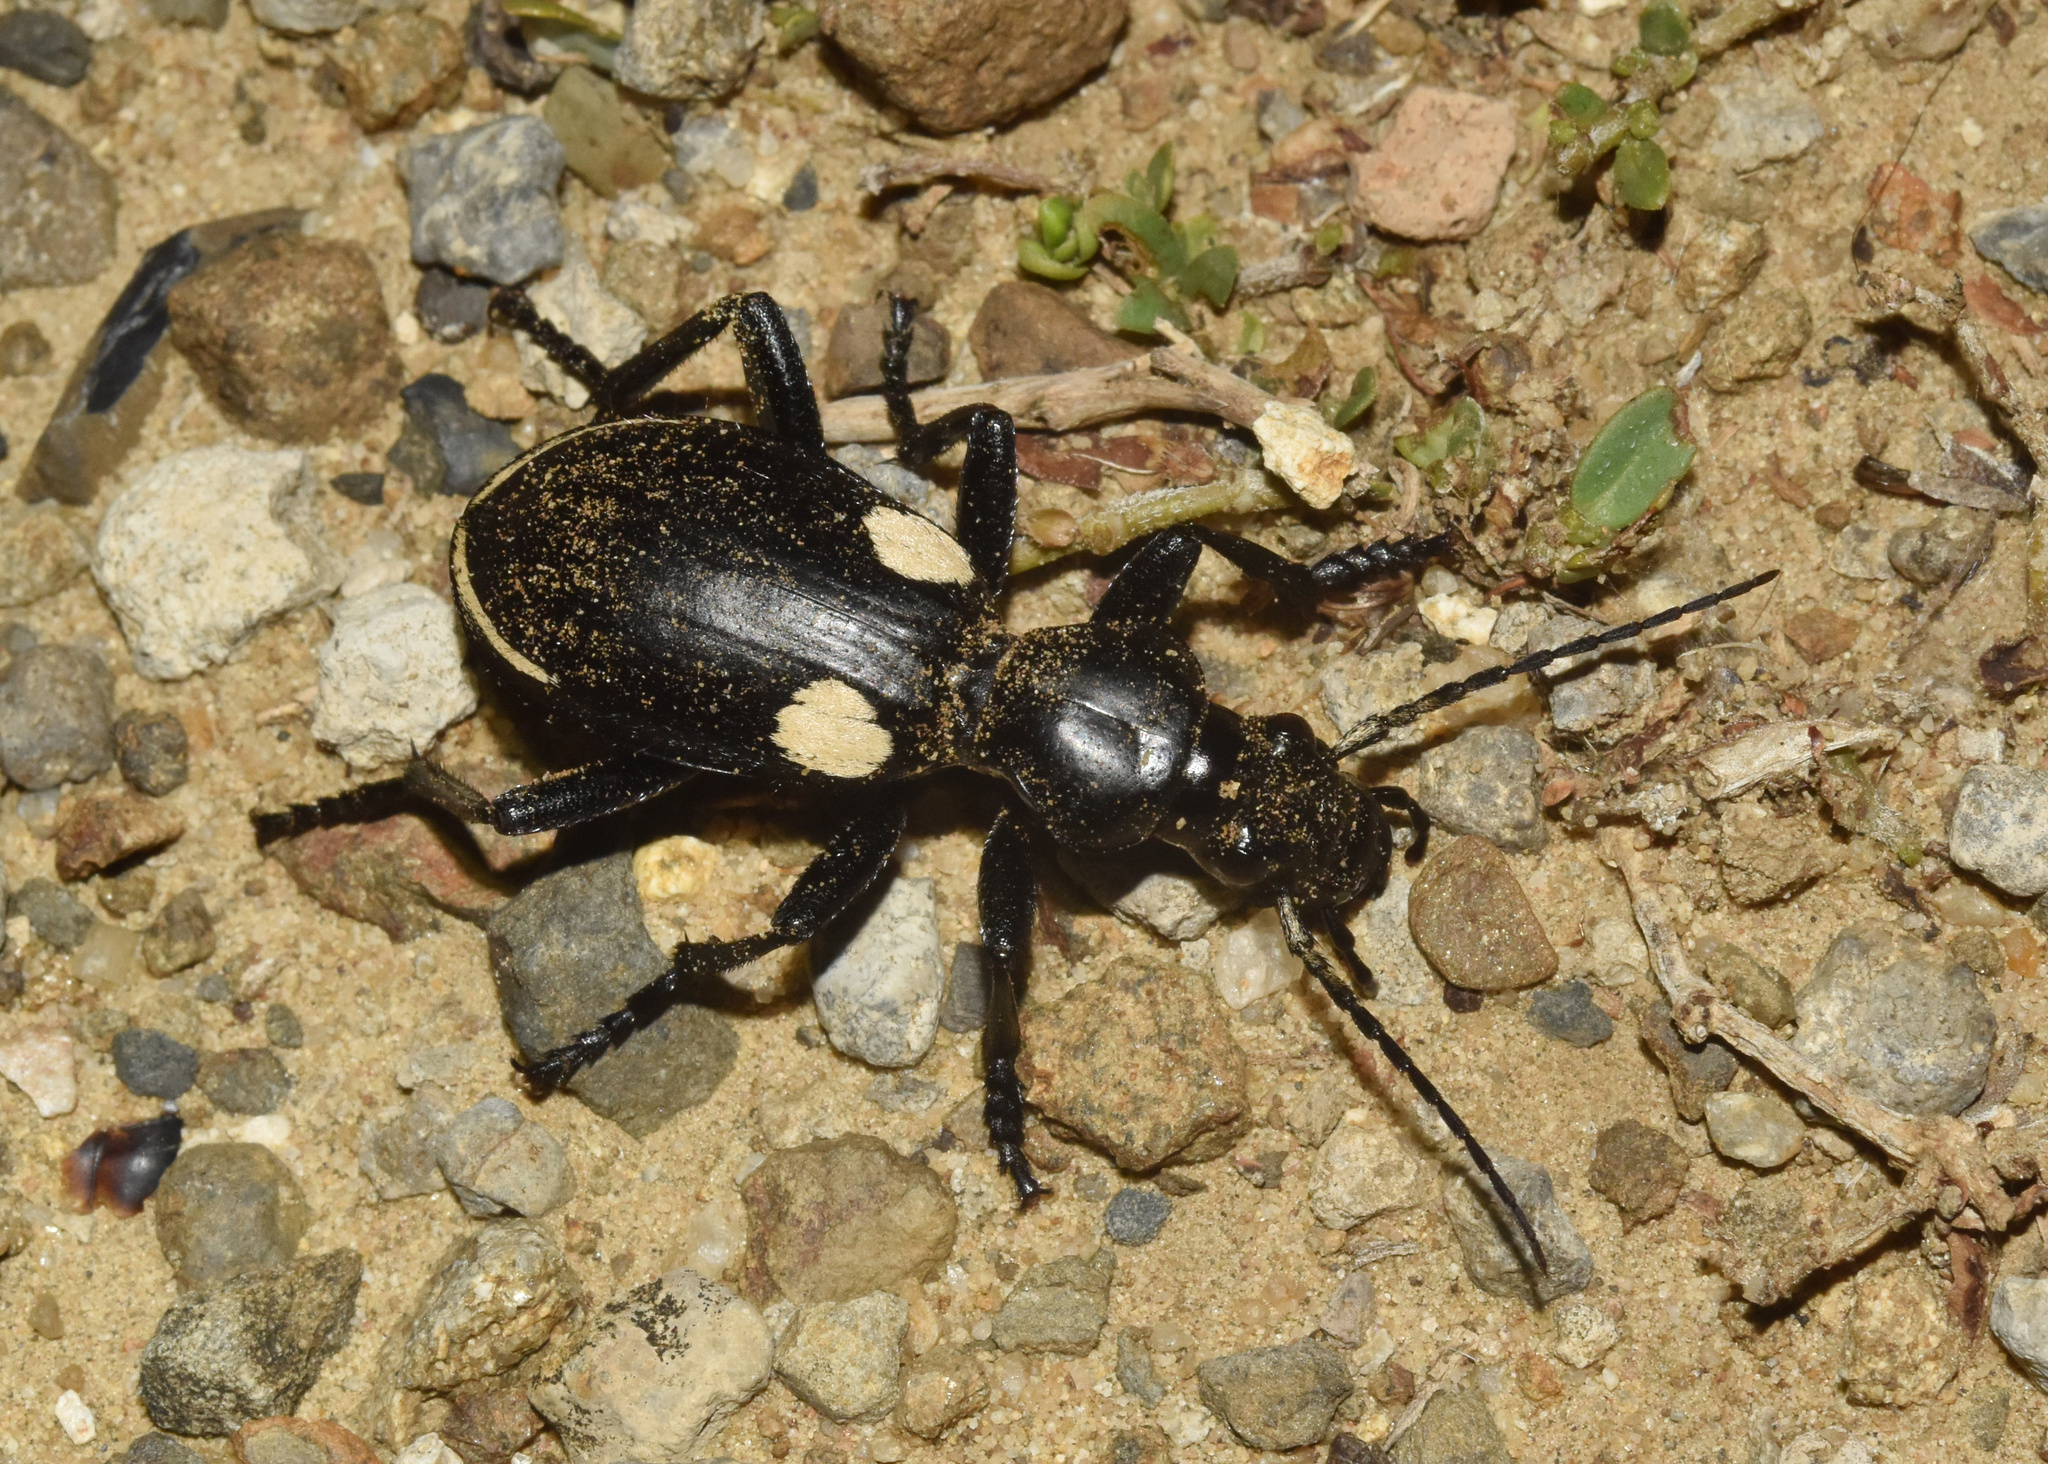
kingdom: Animalia
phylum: Arthropoda
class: Insecta
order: Coleoptera
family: Carabidae
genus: Anthia
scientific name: Anthia
